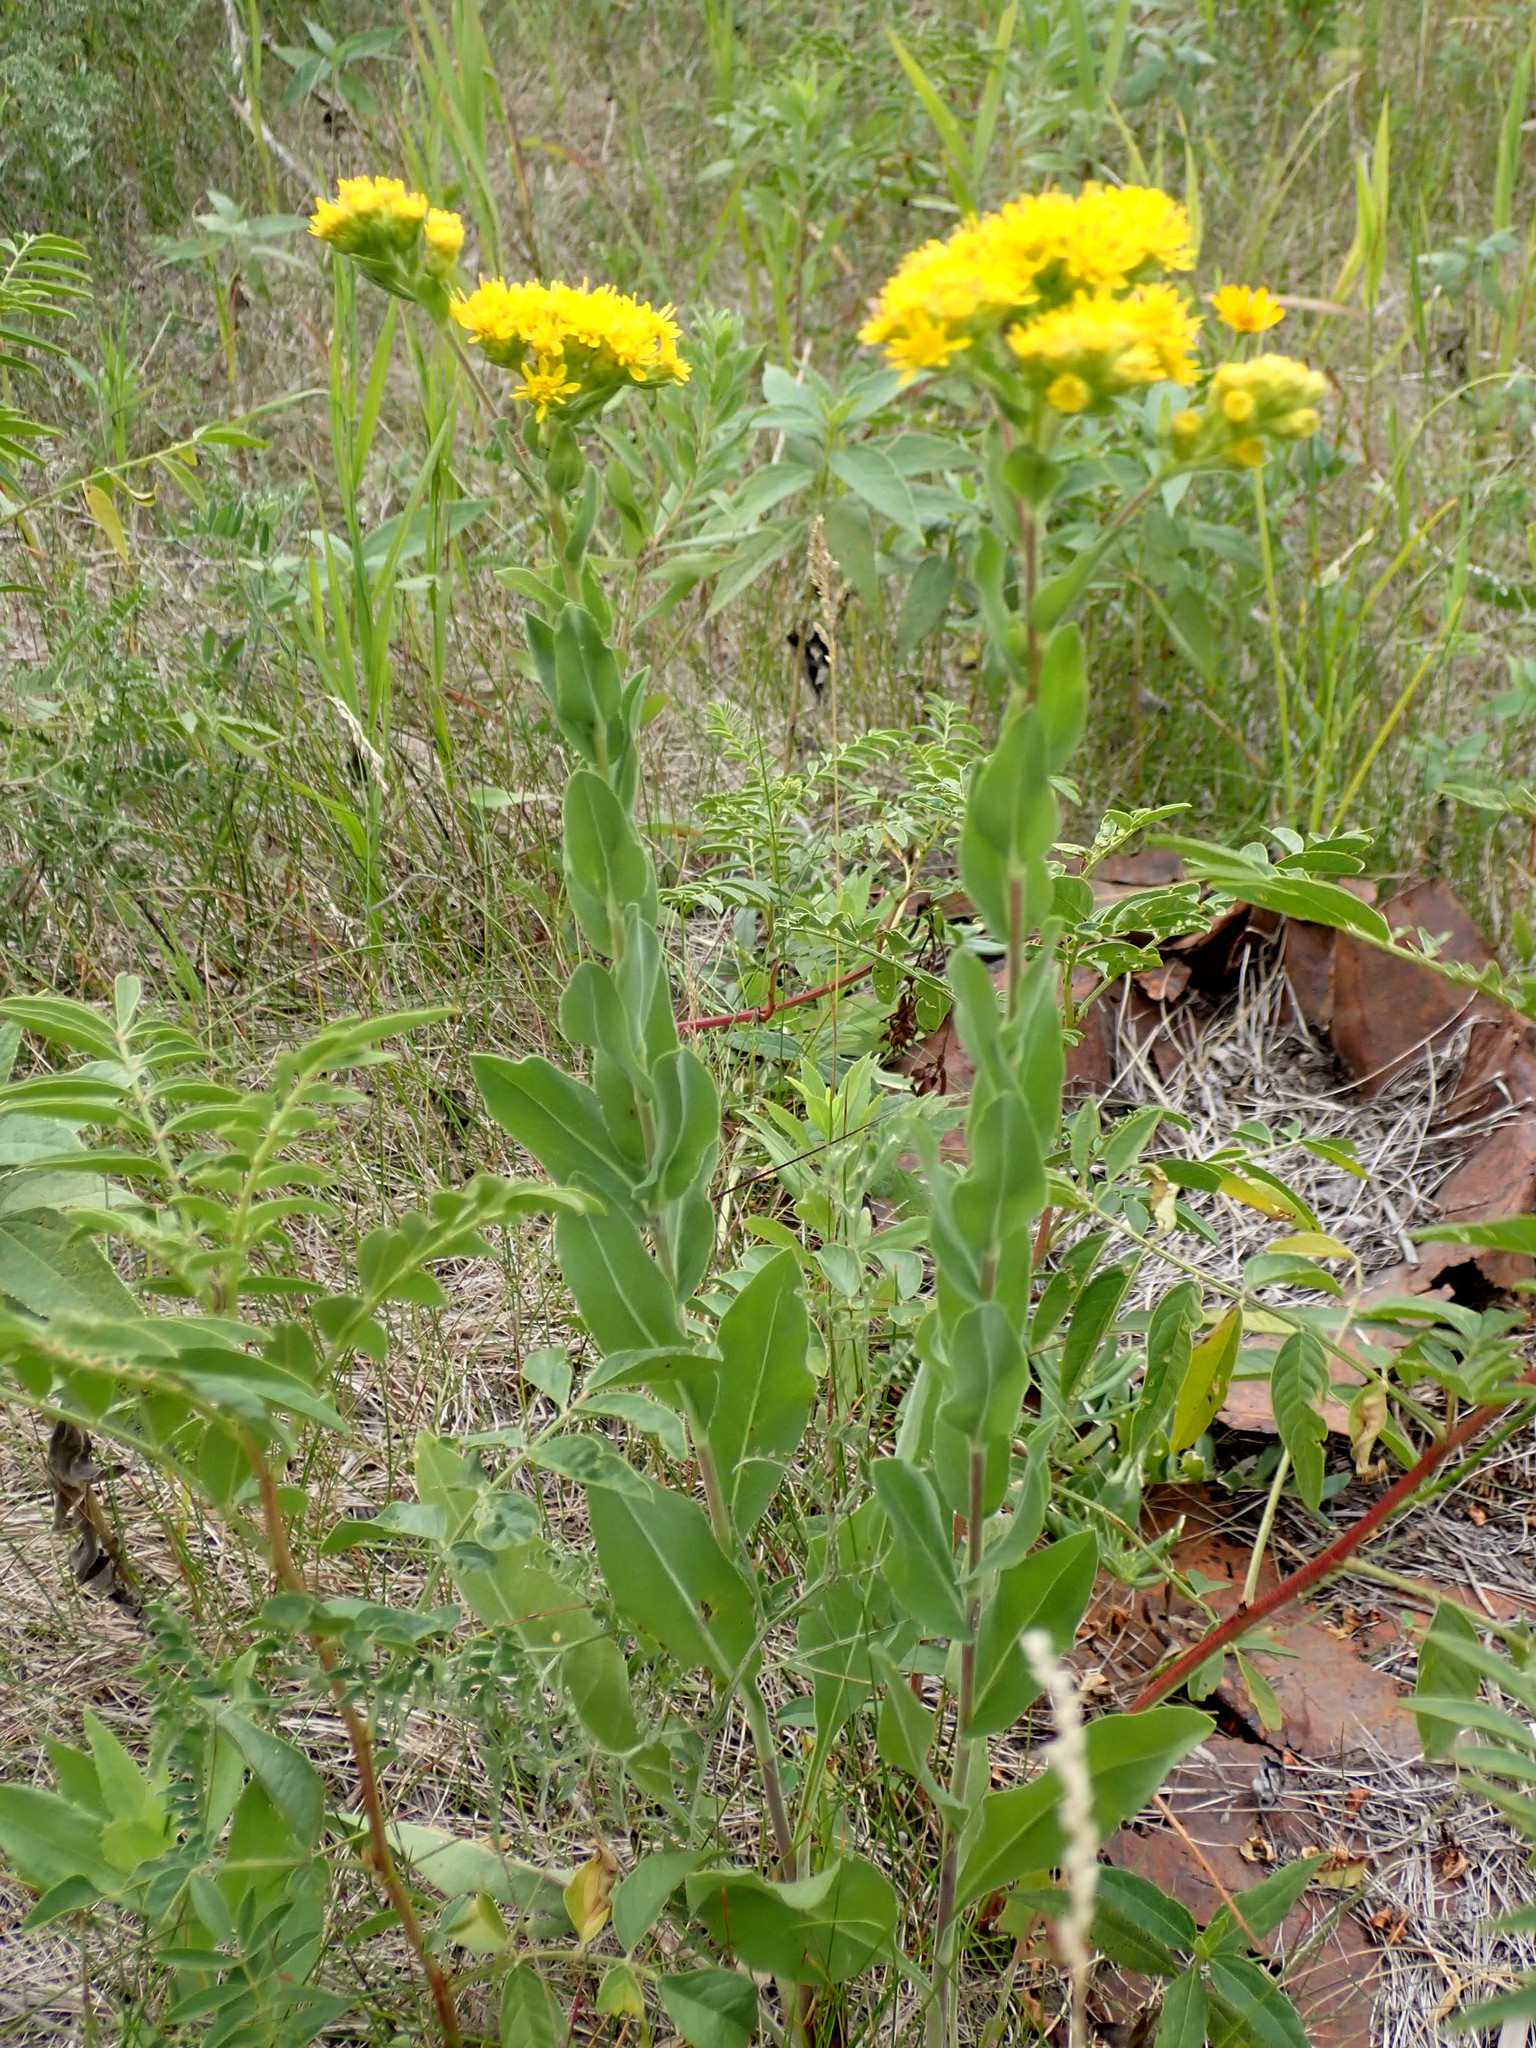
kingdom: Plantae
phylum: Tracheophyta
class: Magnoliopsida
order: Asterales
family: Asteraceae
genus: Solidago
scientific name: Solidago rigida
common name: Rigid goldenrod
